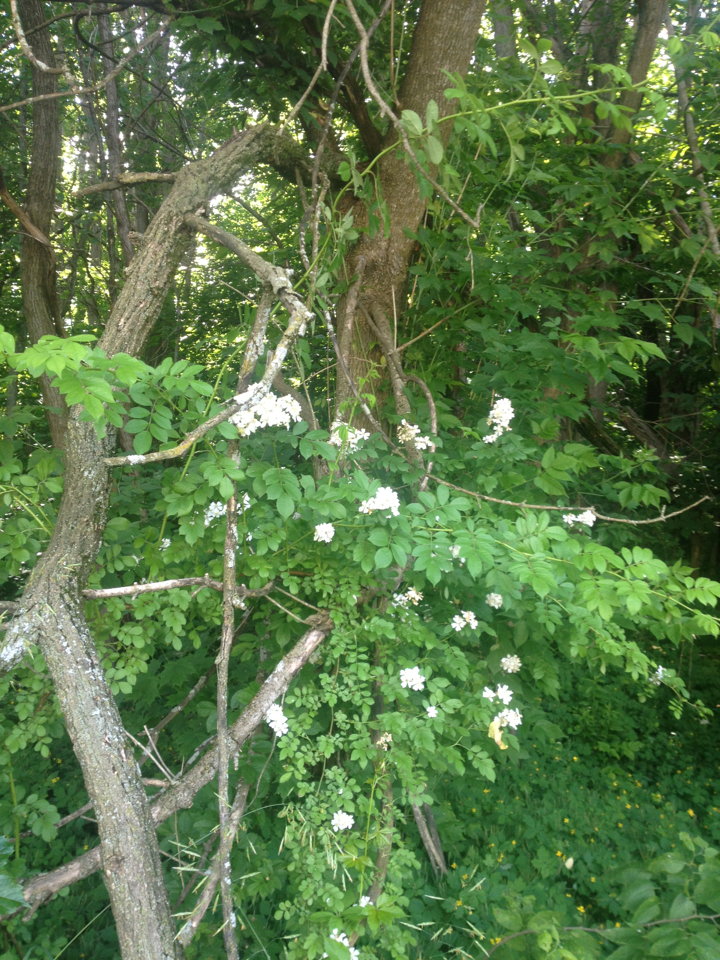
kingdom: Plantae
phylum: Tracheophyta
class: Magnoliopsida
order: Rosales
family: Rosaceae
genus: Rosa
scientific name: Rosa multiflora
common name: Multiflora rose
